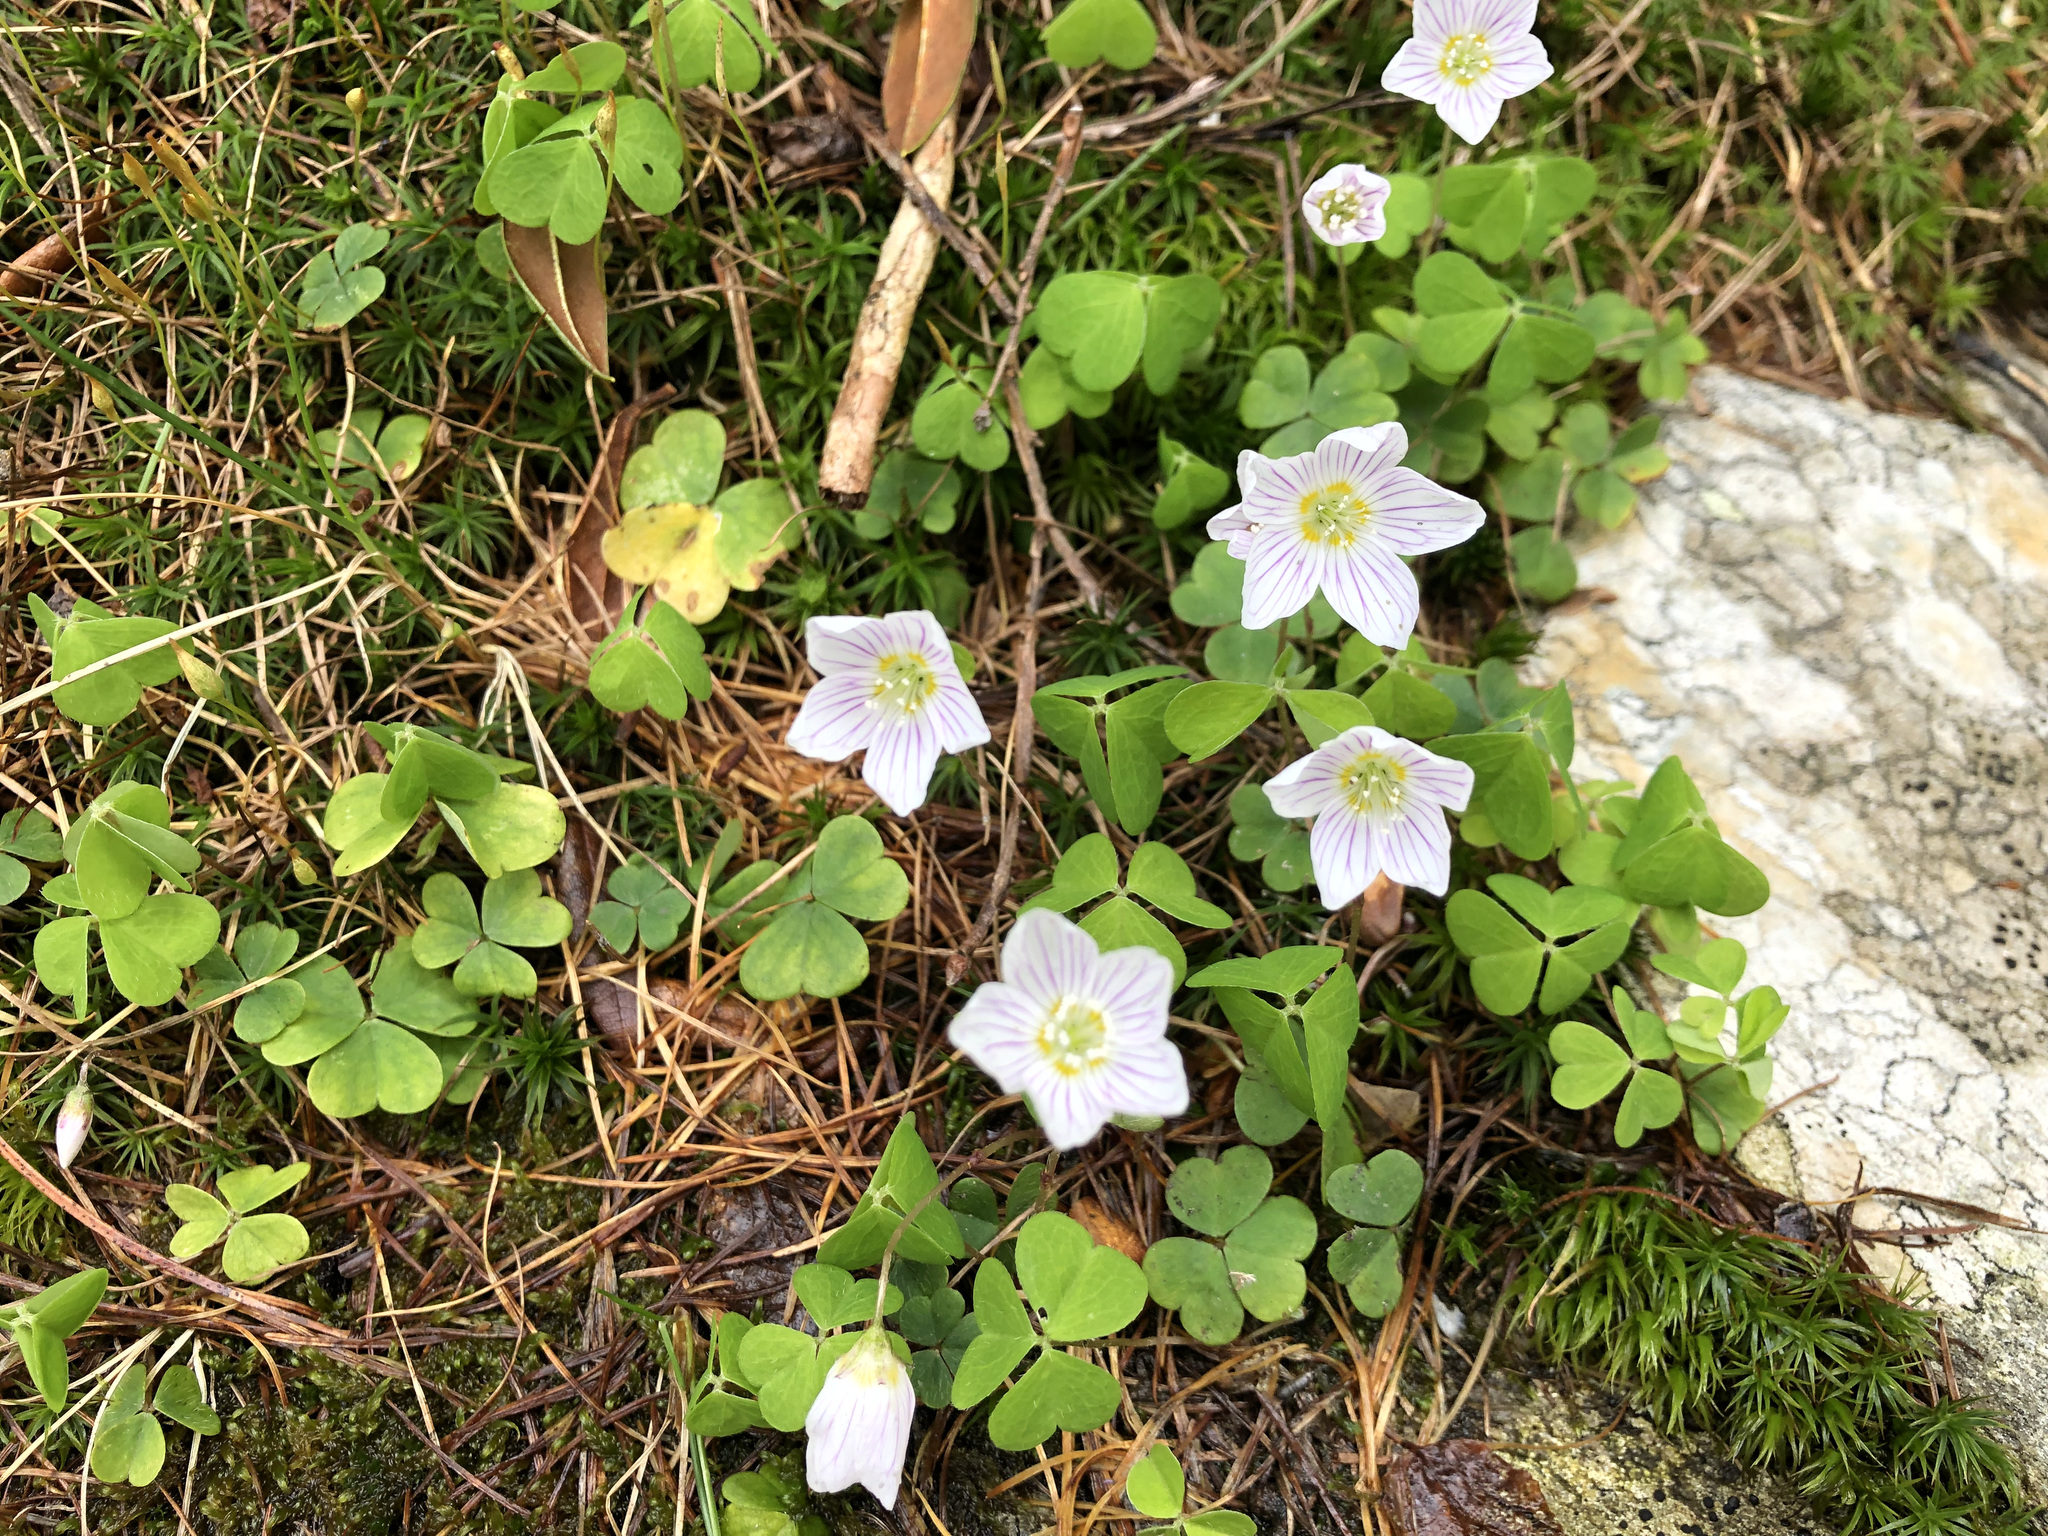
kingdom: Plantae
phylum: Tracheophyta
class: Magnoliopsida
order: Oxalidales
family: Oxalidaceae
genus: Oxalis
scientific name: Oxalis acetosella
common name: Wood-sorrel
